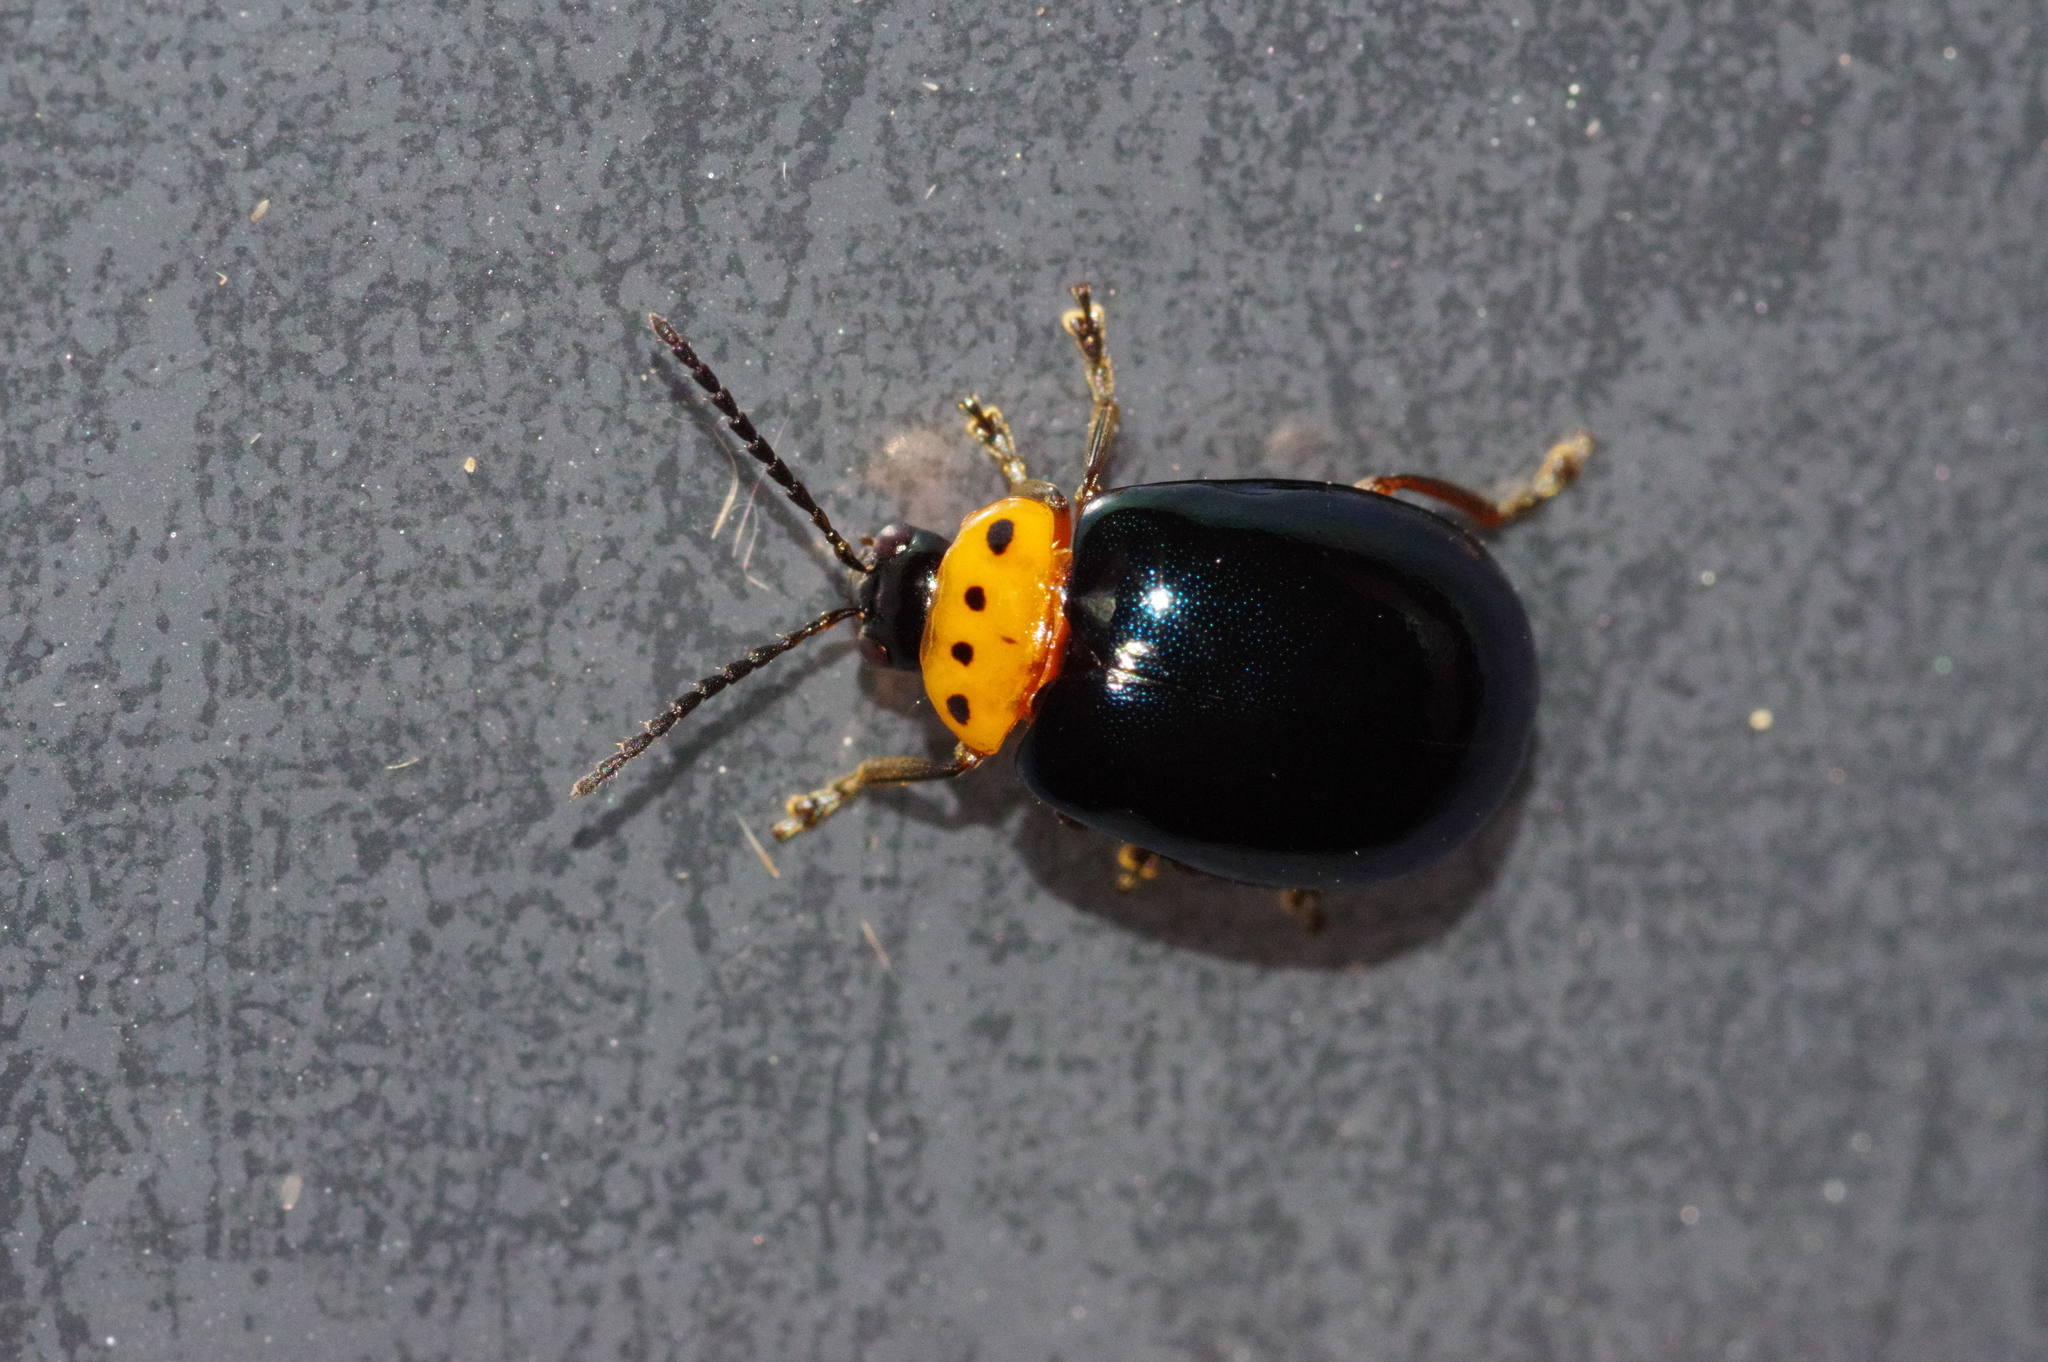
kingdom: Animalia
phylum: Arthropoda
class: Insecta
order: Coleoptera
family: Chrysomelidae
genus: Morphosphaera
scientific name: Morphosphaera caerulea
